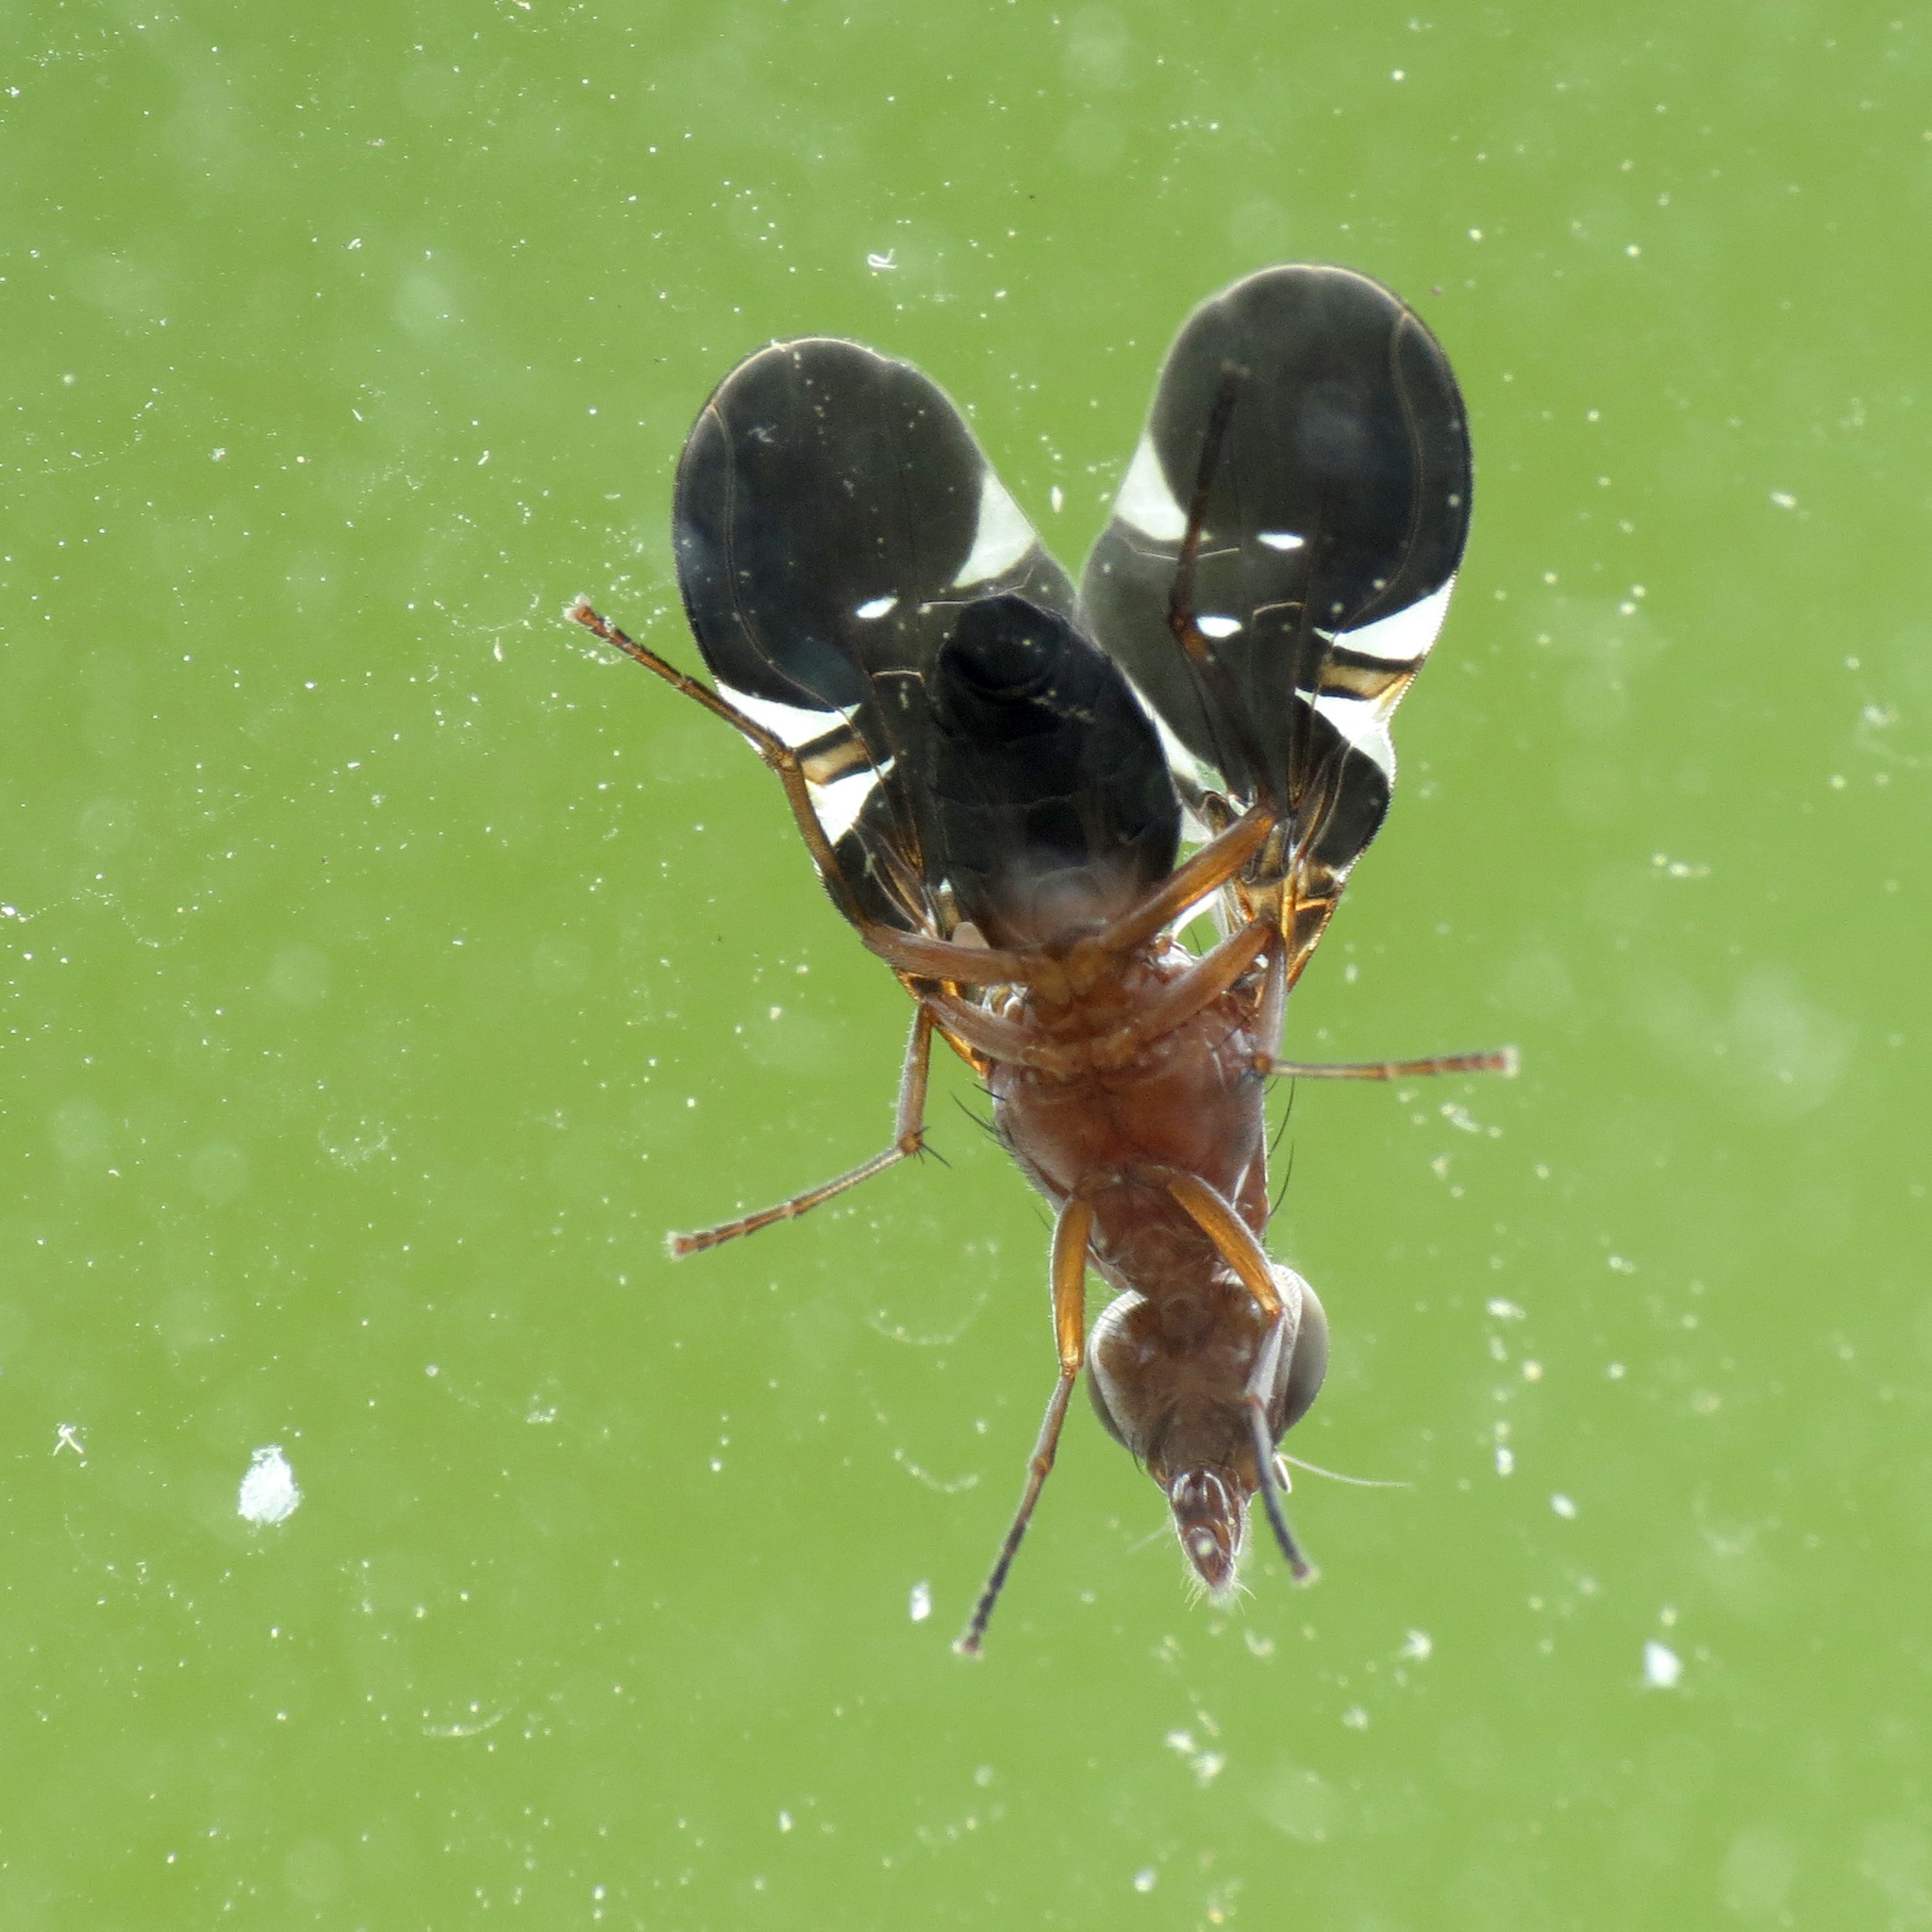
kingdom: Animalia
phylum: Arthropoda
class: Insecta
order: Diptera
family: Ulidiidae
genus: Delphinia
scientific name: Delphinia picta
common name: Common picture-winged fly
